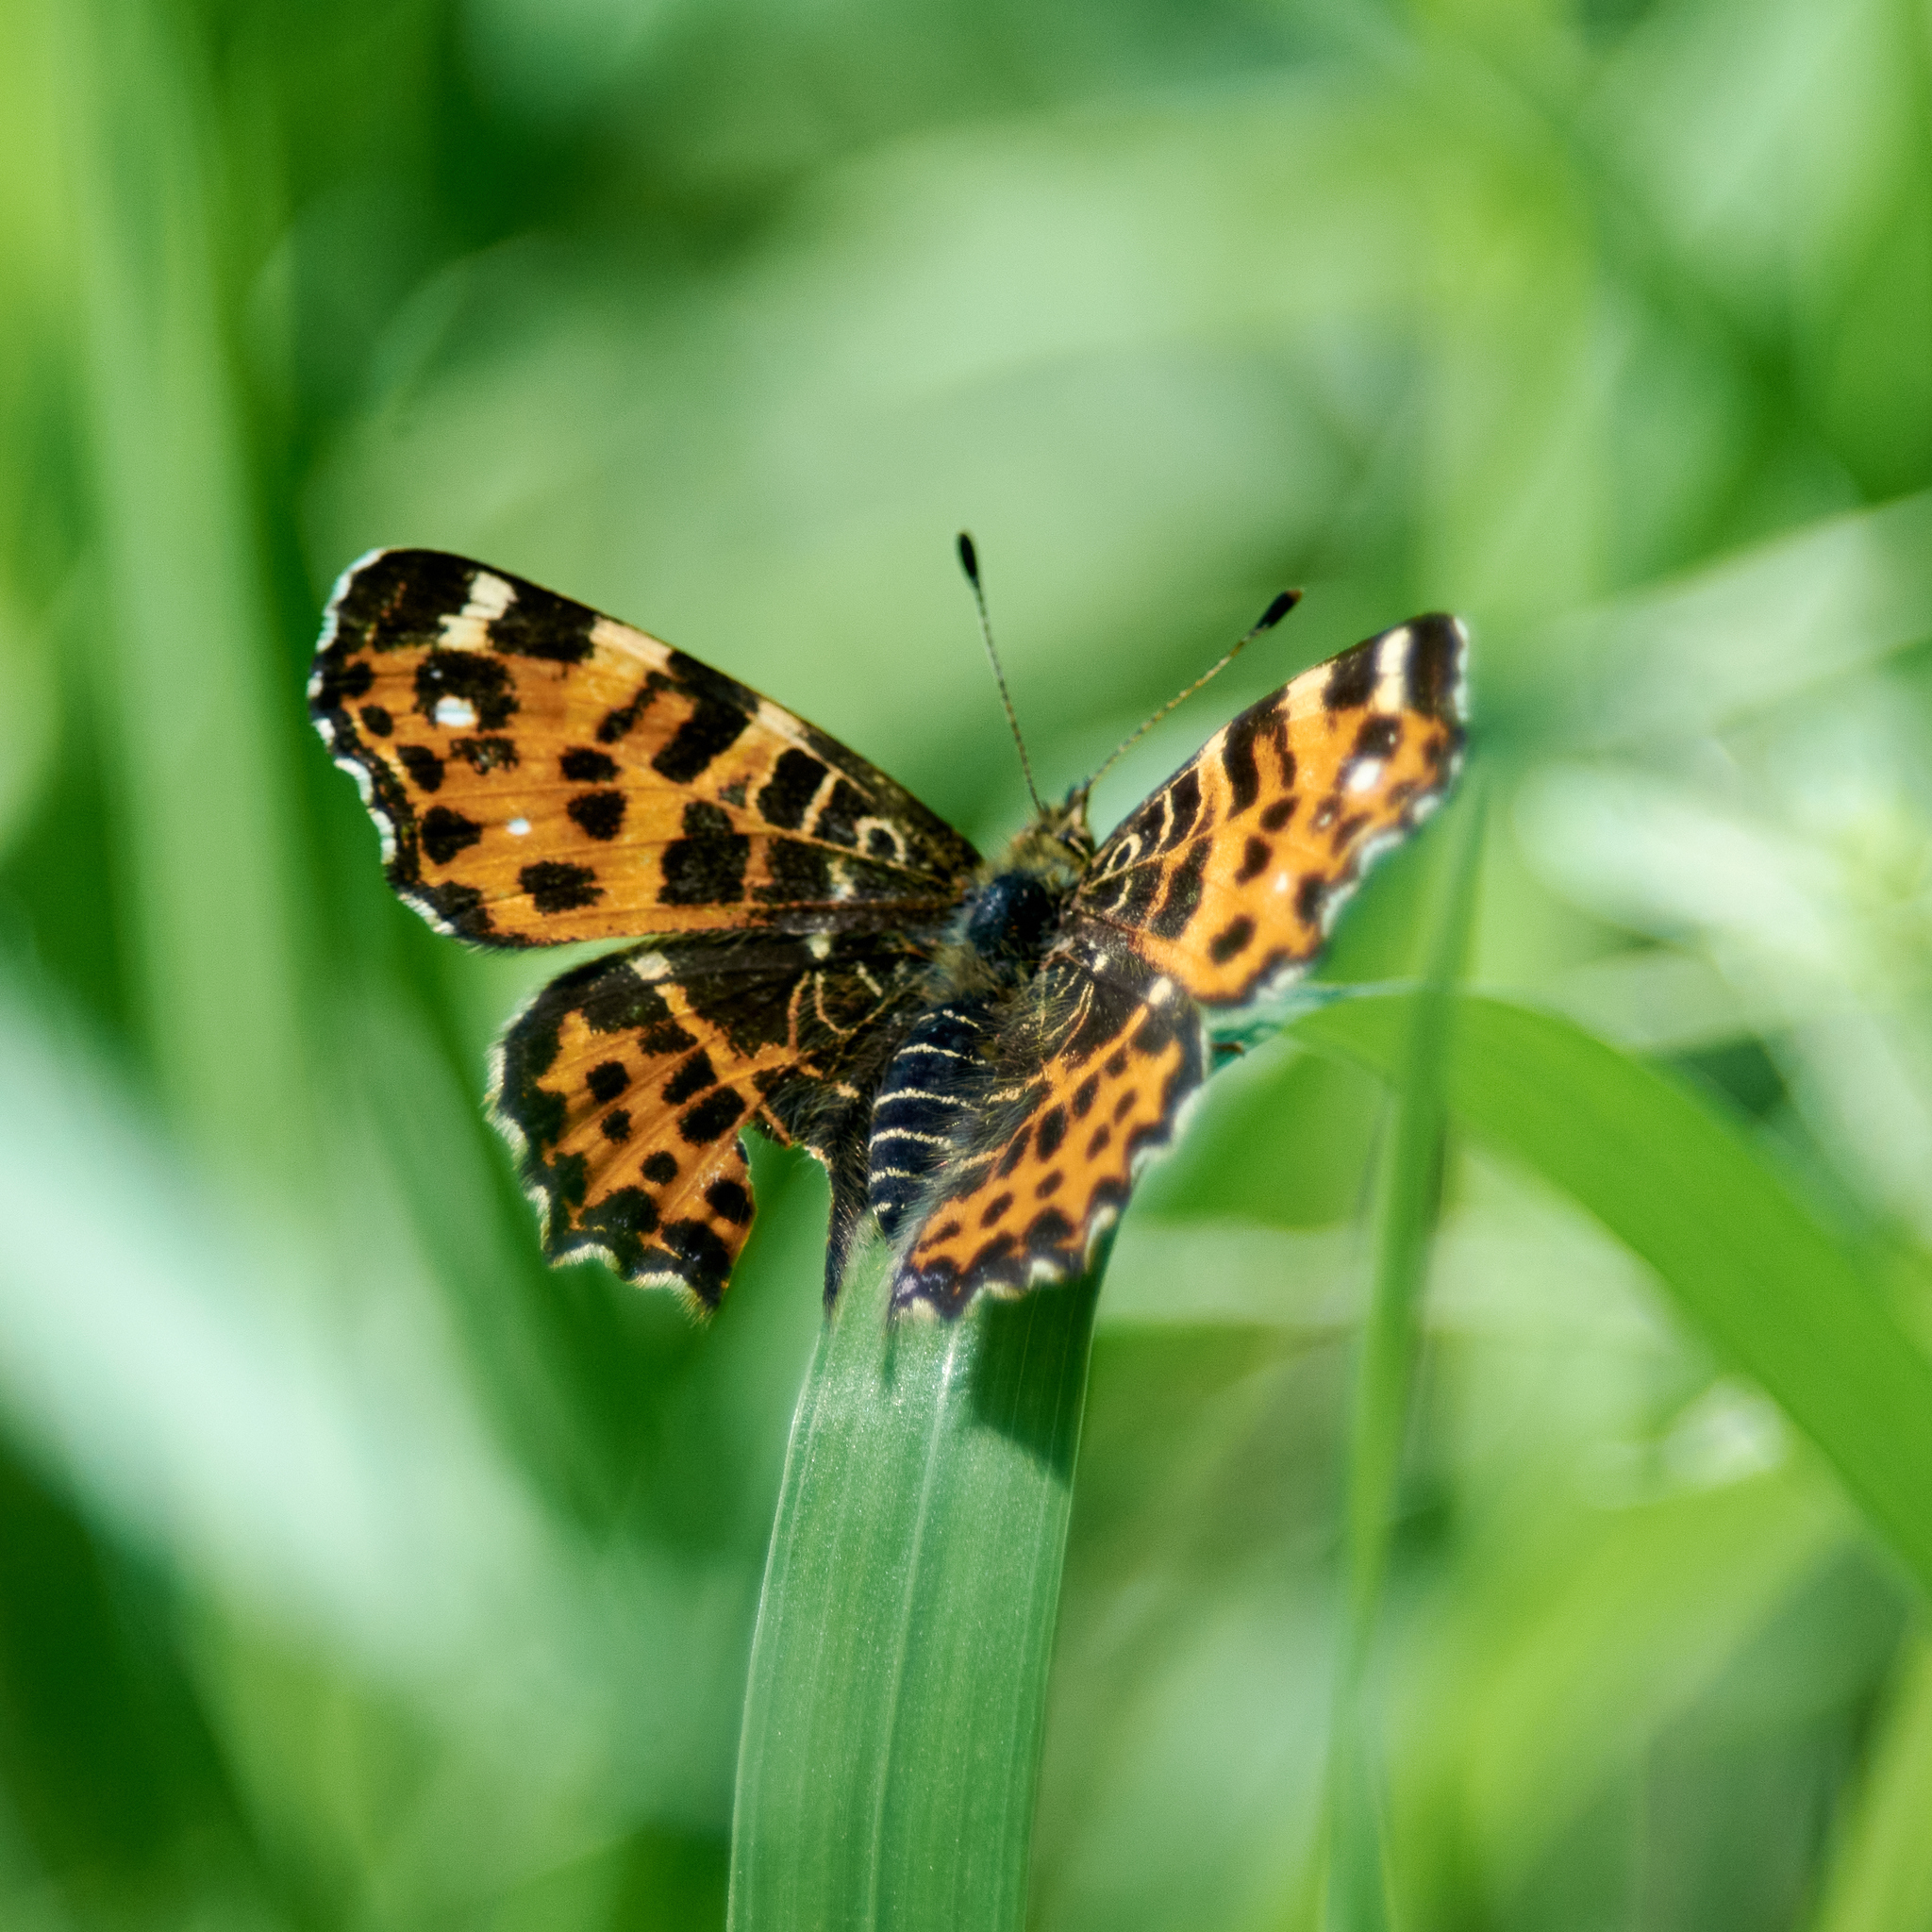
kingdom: Animalia
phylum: Arthropoda
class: Insecta
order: Lepidoptera
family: Nymphalidae
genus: Araschnia
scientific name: Araschnia levana
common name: Map butterfly
